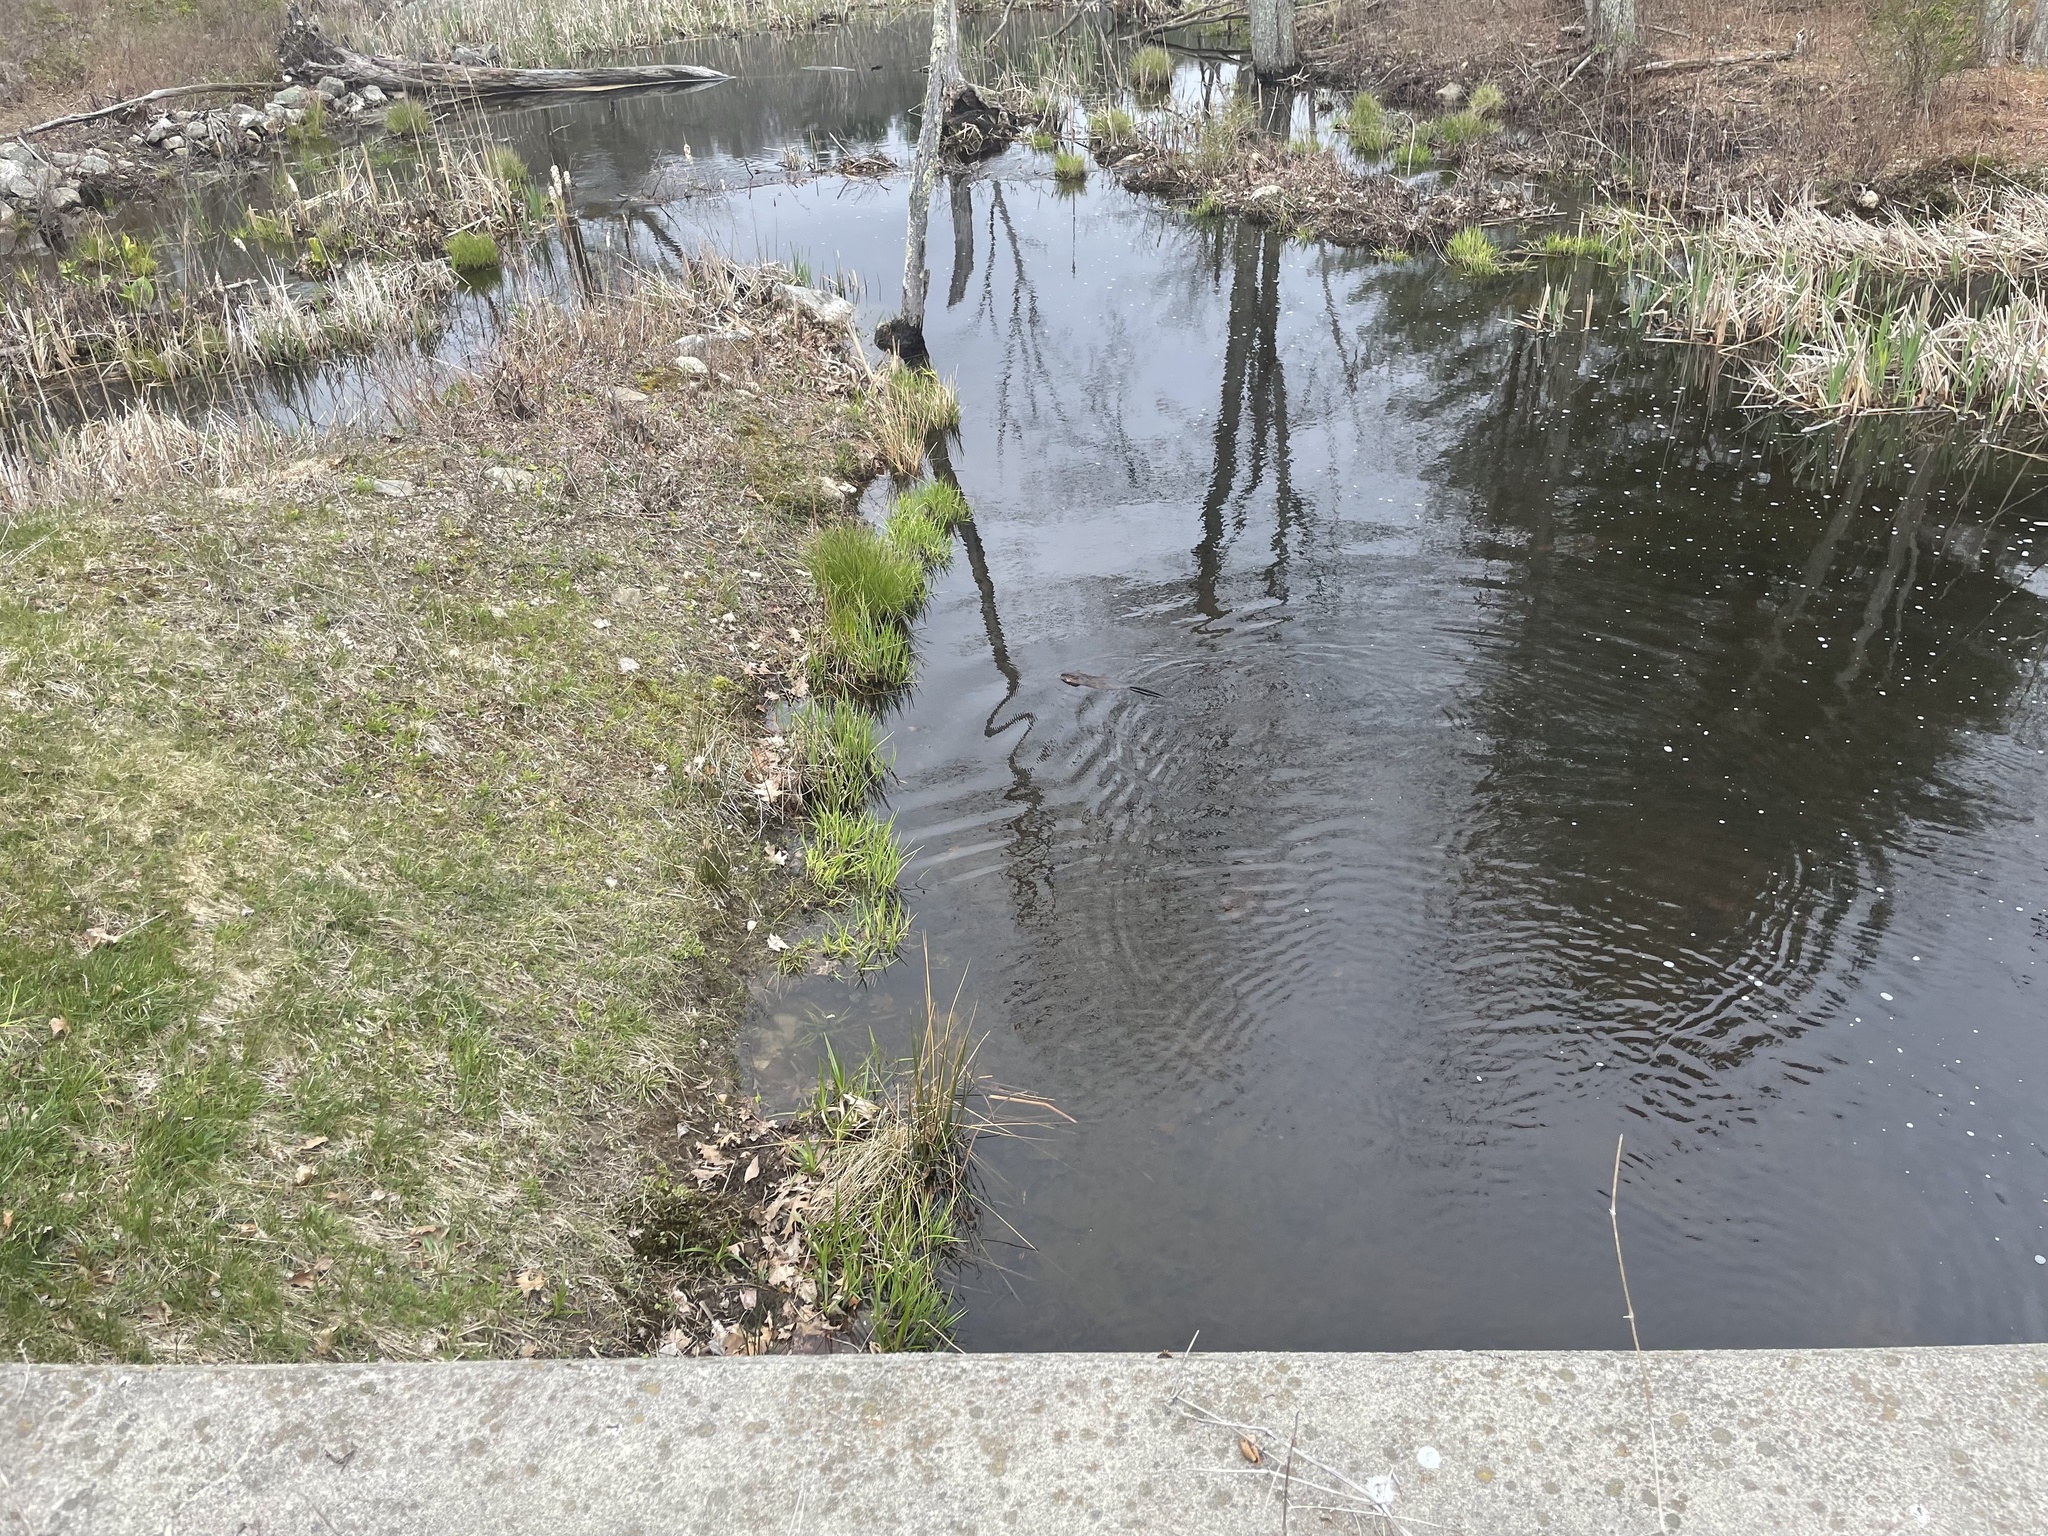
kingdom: Animalia
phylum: Chordata
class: Mammalia
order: Rodentia
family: Cricetidae
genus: Ondatra
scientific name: Ondatra zibethicus
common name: Muskrat
